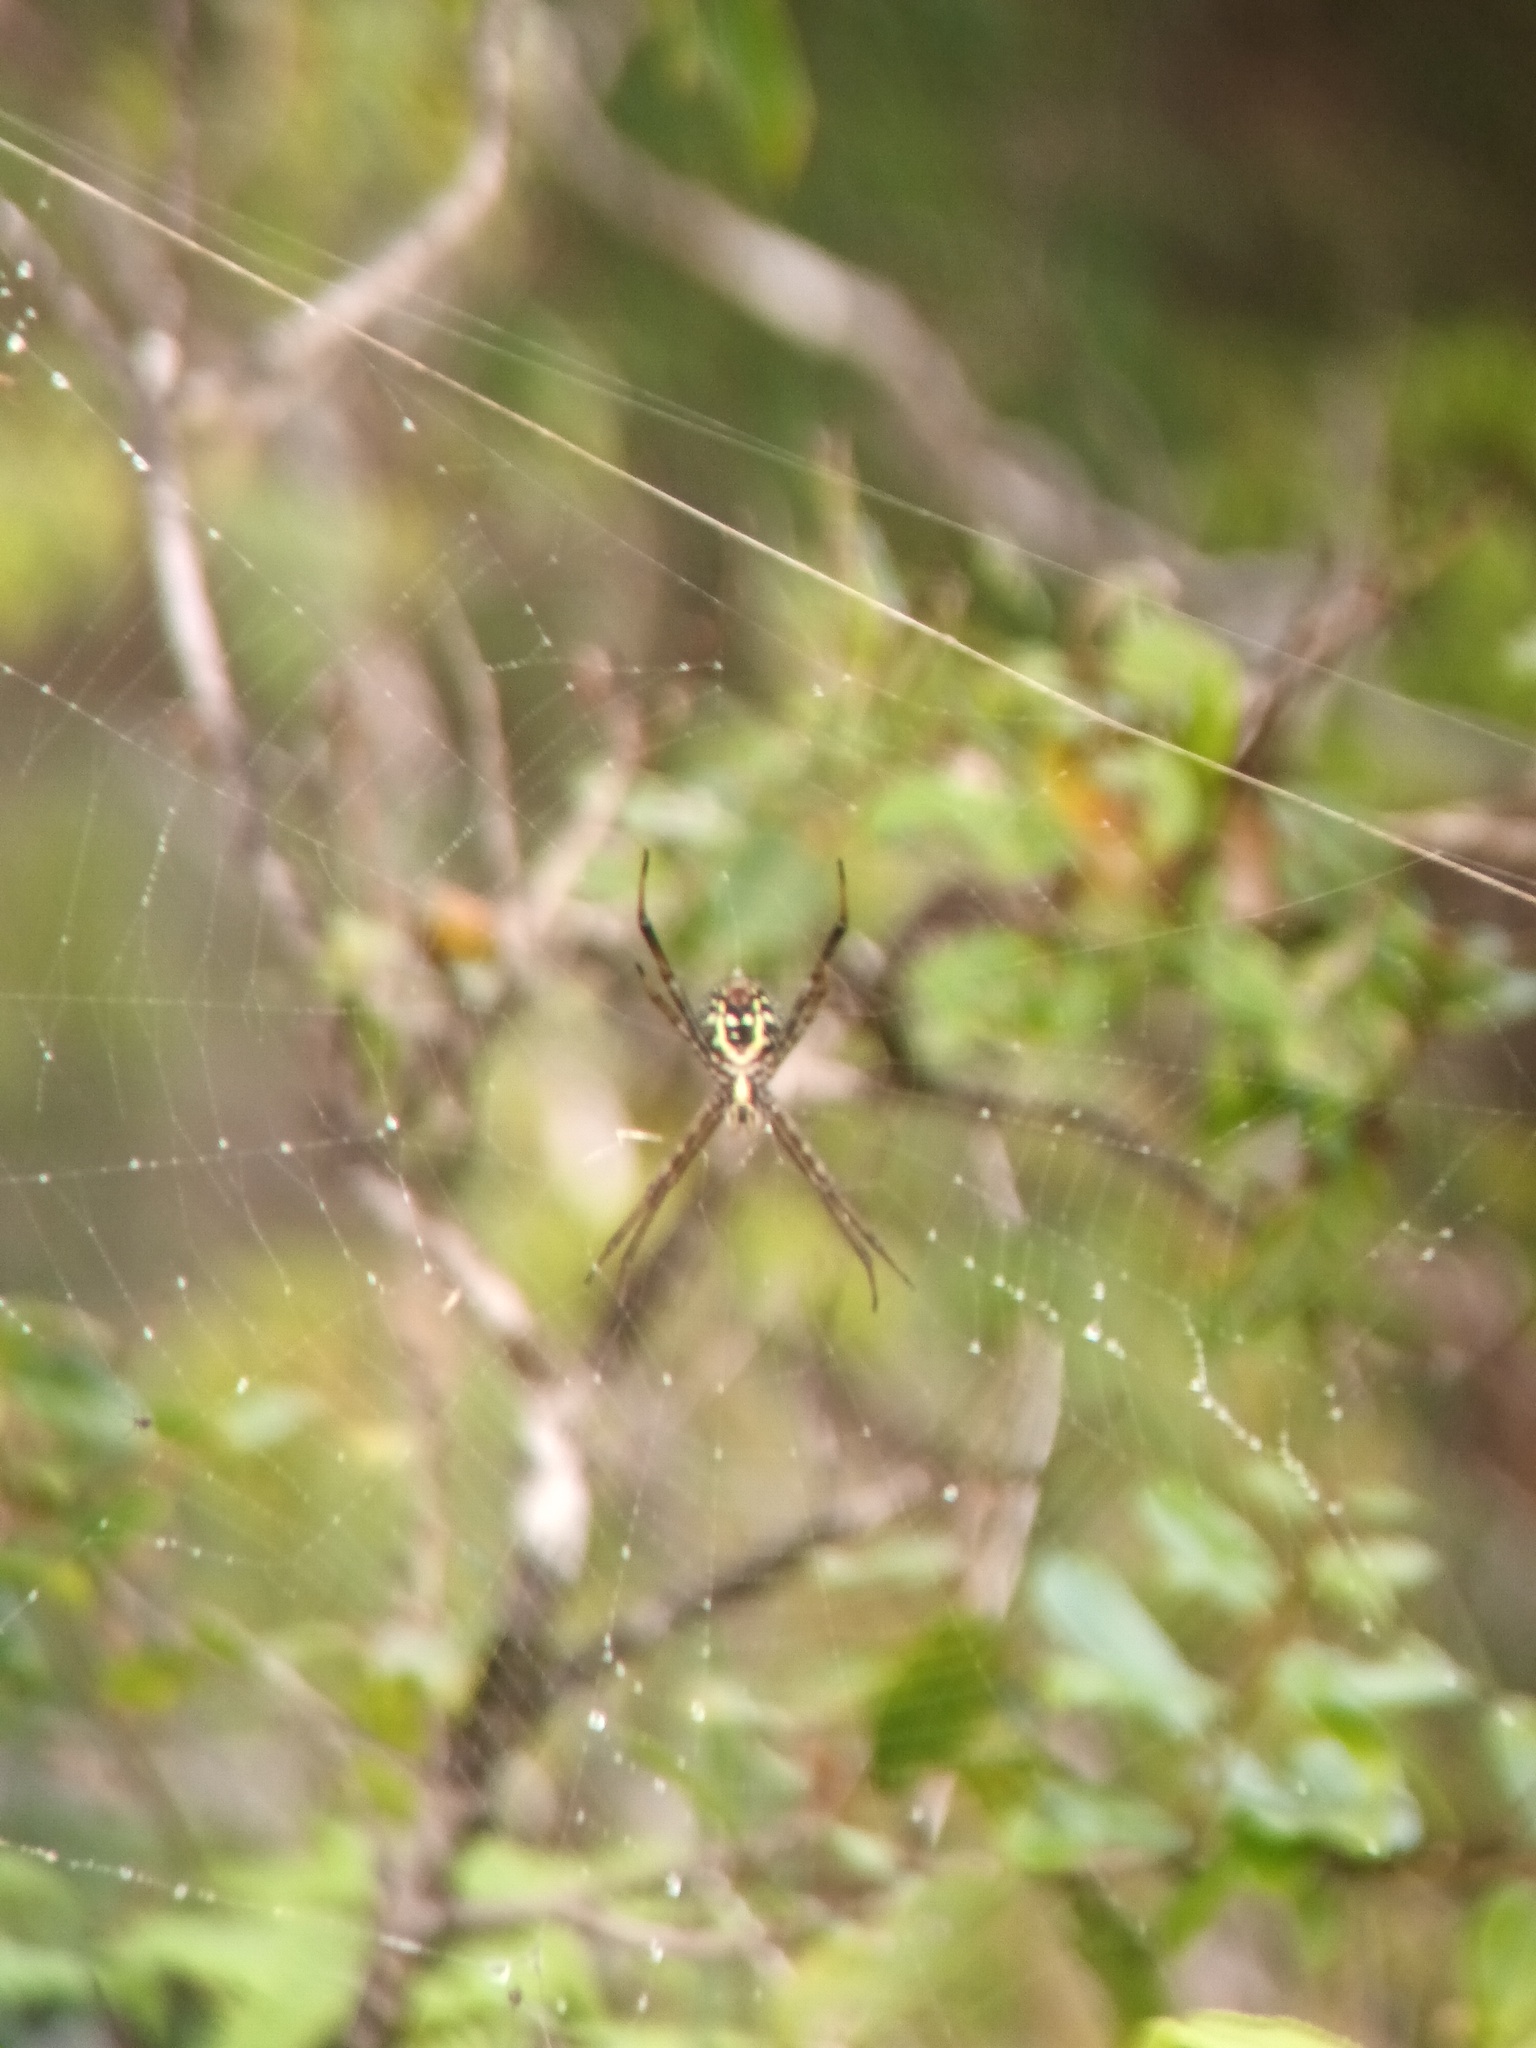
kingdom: Animalia
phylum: Arthropoda
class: Arachnida
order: Araneae
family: Araneidae
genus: Argiope
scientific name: Argiope appensa
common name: Garden spider
